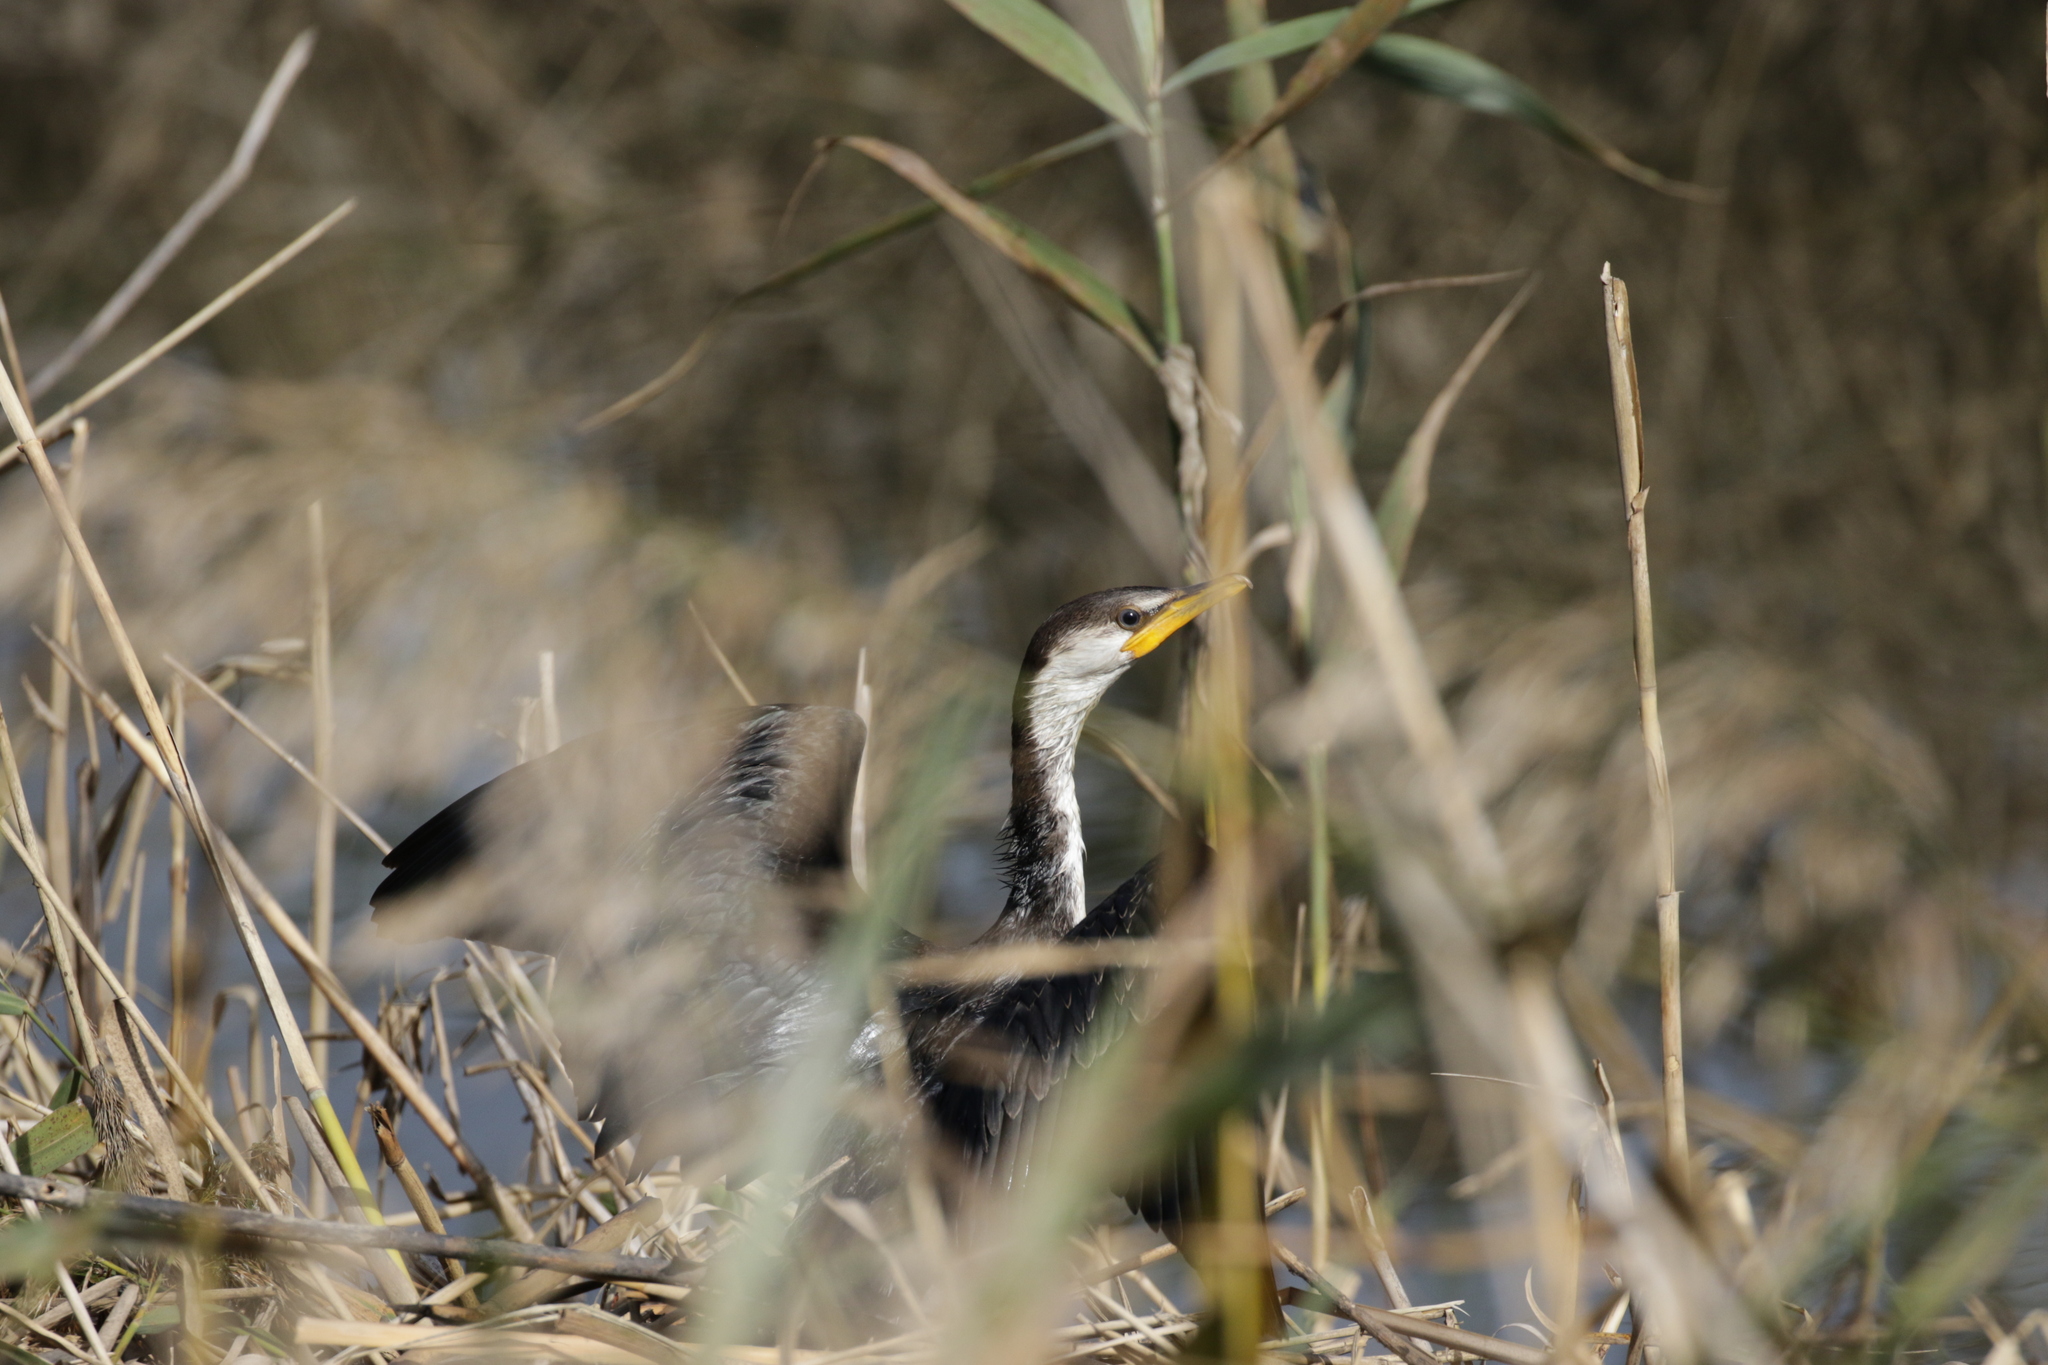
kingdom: Animalia
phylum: Chordata
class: Aves
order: Suliformes
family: Phalacrocoracidae
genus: Microcarbo
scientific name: Microcarbo melanoleucos
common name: Little pied cormorant
